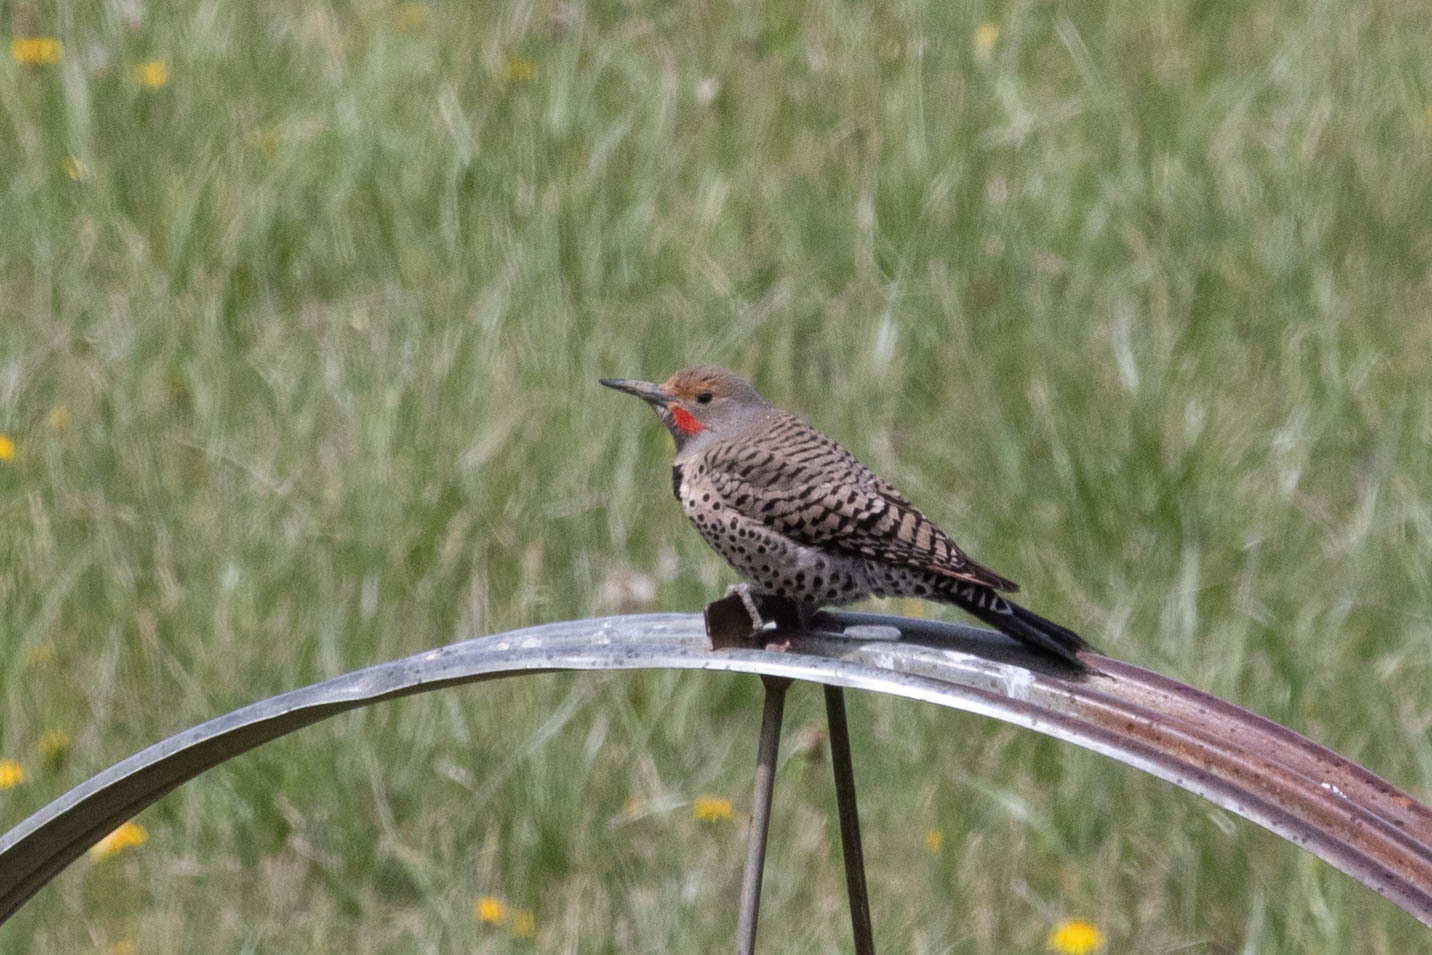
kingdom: Animalia
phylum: Chordata
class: Aves
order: Piciformes
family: Picidae
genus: Colaptes
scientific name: Colaptes auratus
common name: Northern flicker
